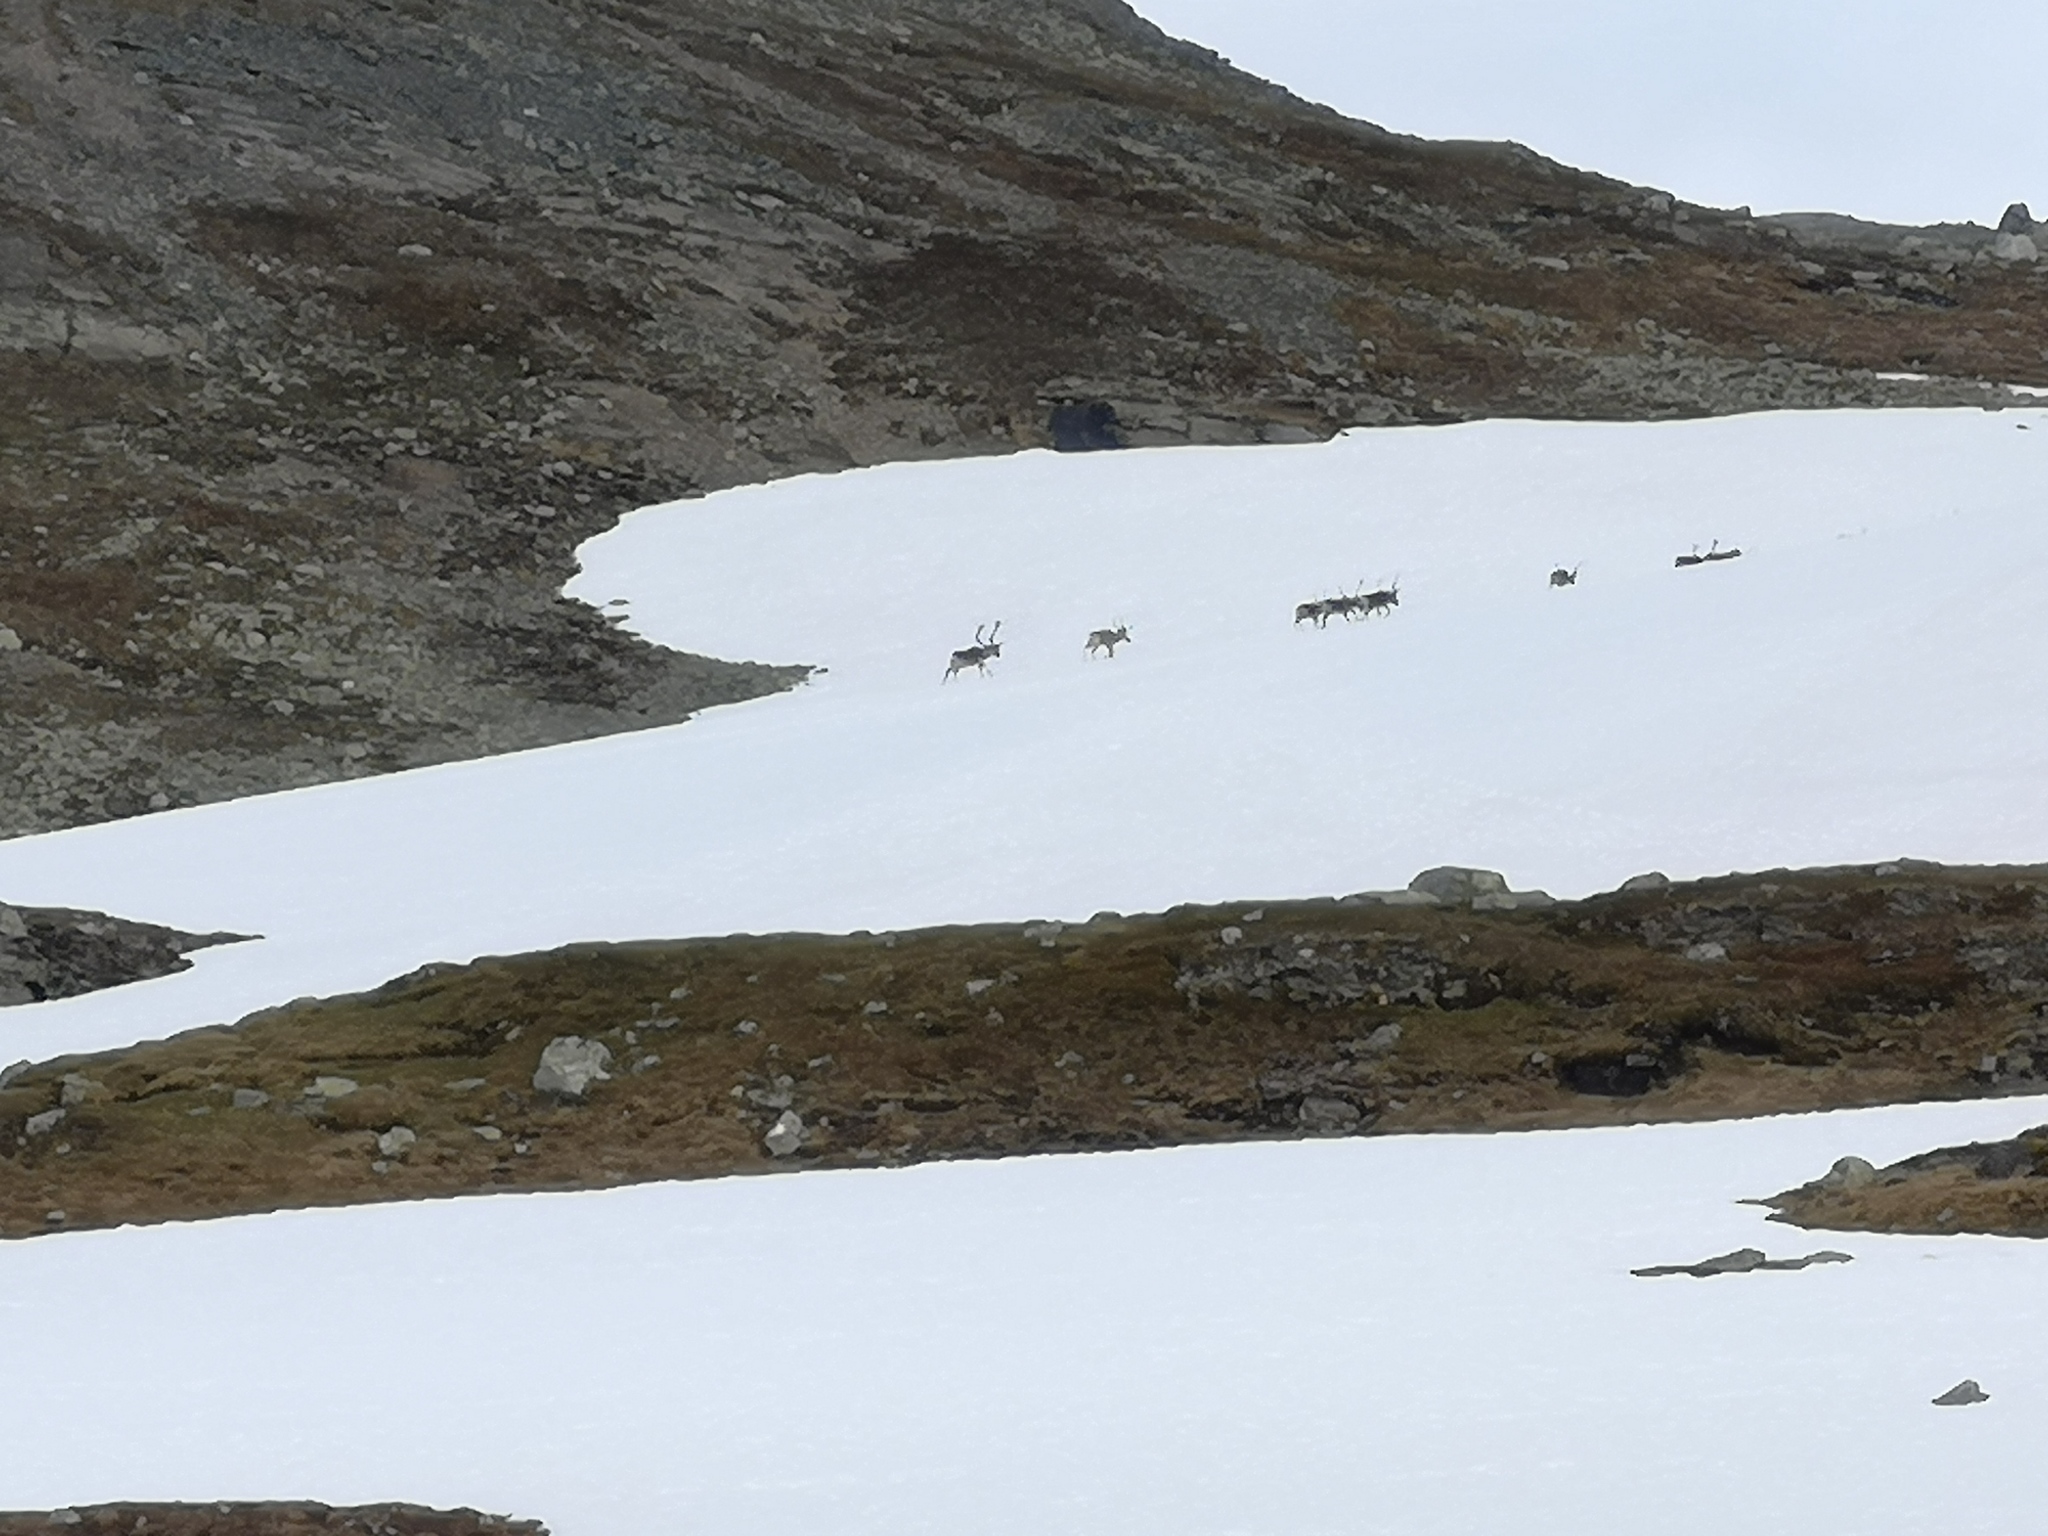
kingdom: Animalia
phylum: Chordata
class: Mammalia
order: Artiodactyla
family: Cervidae
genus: Rangifer
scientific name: Rangifer tarandus
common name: Reindeer
